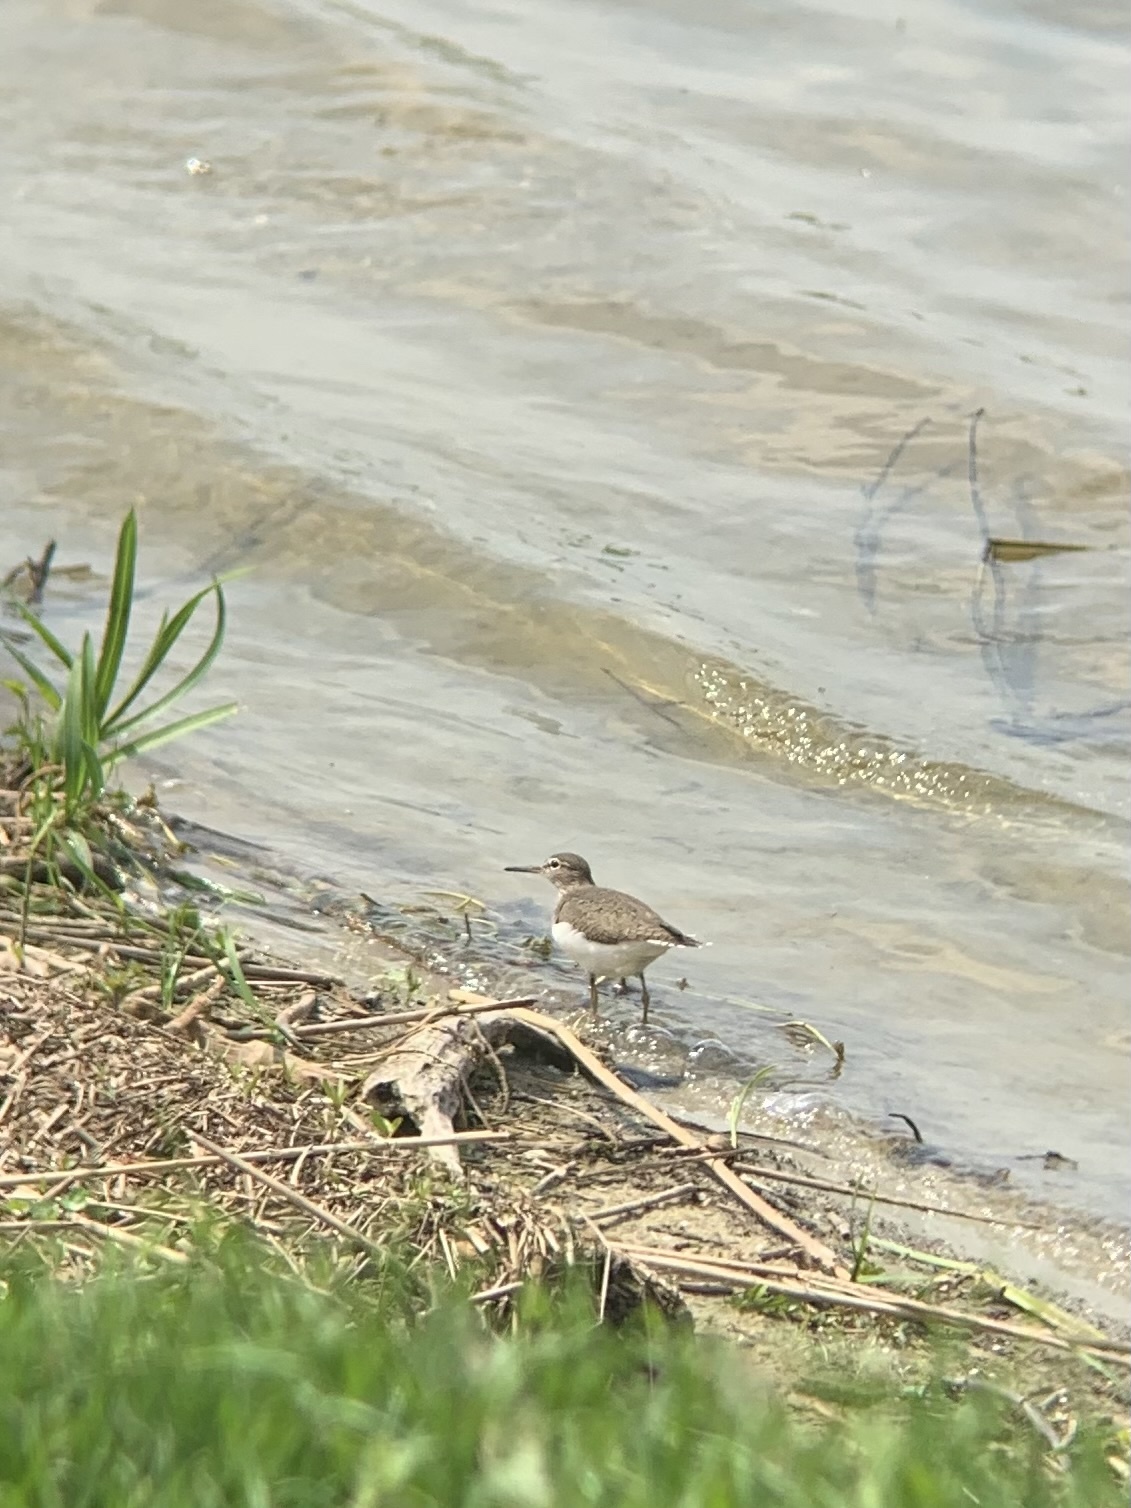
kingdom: Animalia
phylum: Chordata
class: Aves
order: Charadriiformes
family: Scolopacidae
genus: Actitis
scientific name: Actitis hypoleucos
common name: Common sandpiper
